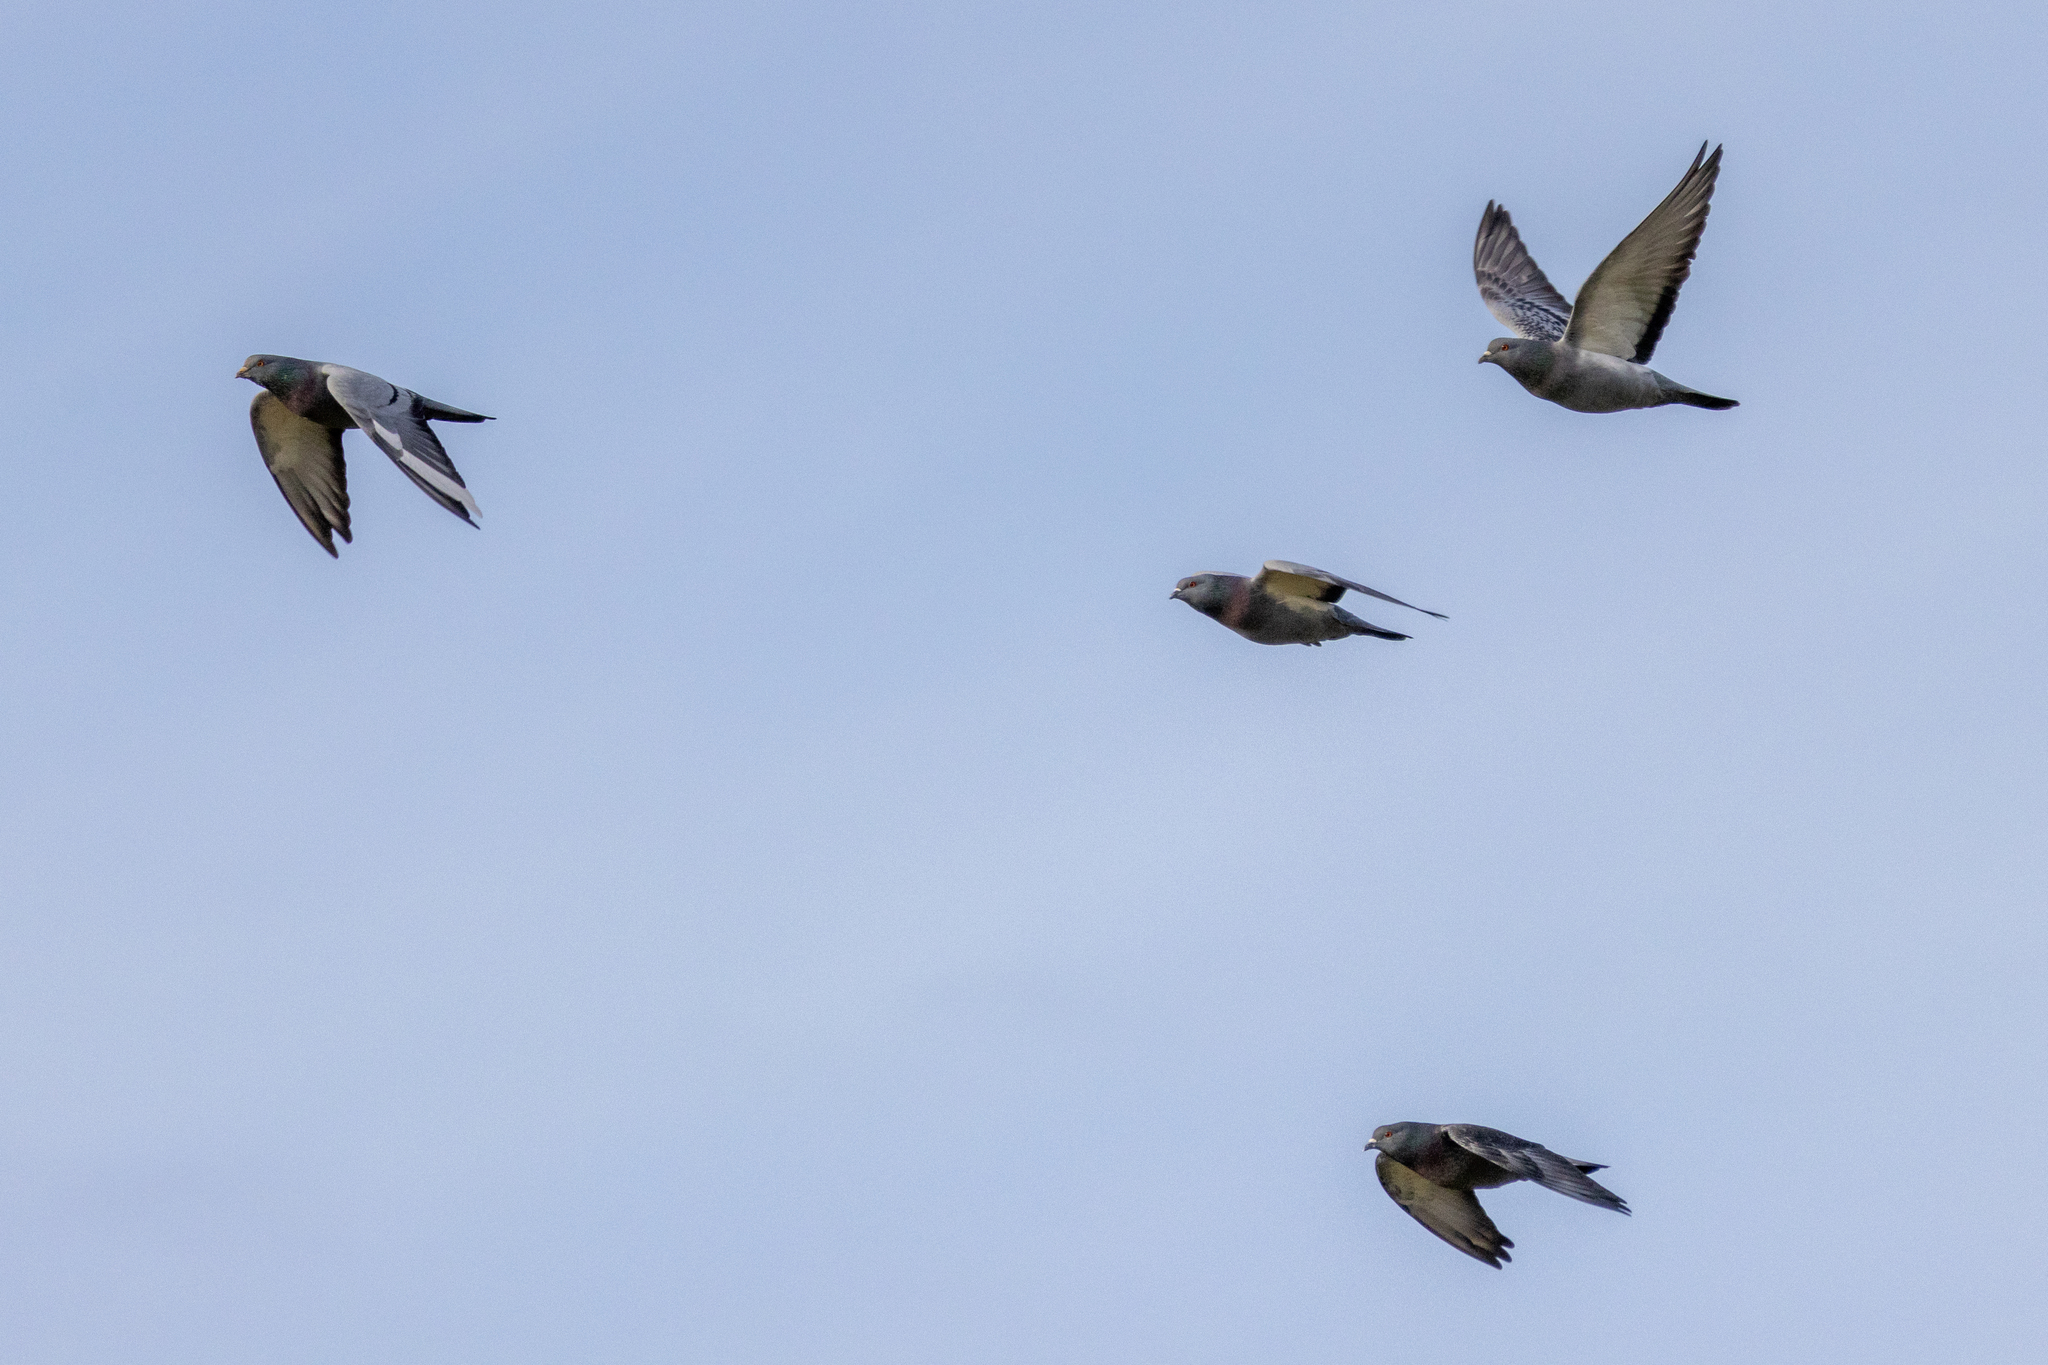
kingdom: Animalia
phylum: Chordata
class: Aves
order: Columbiformes
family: Columbidae
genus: Columba
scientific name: Columba livia
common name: Rock pigeon
